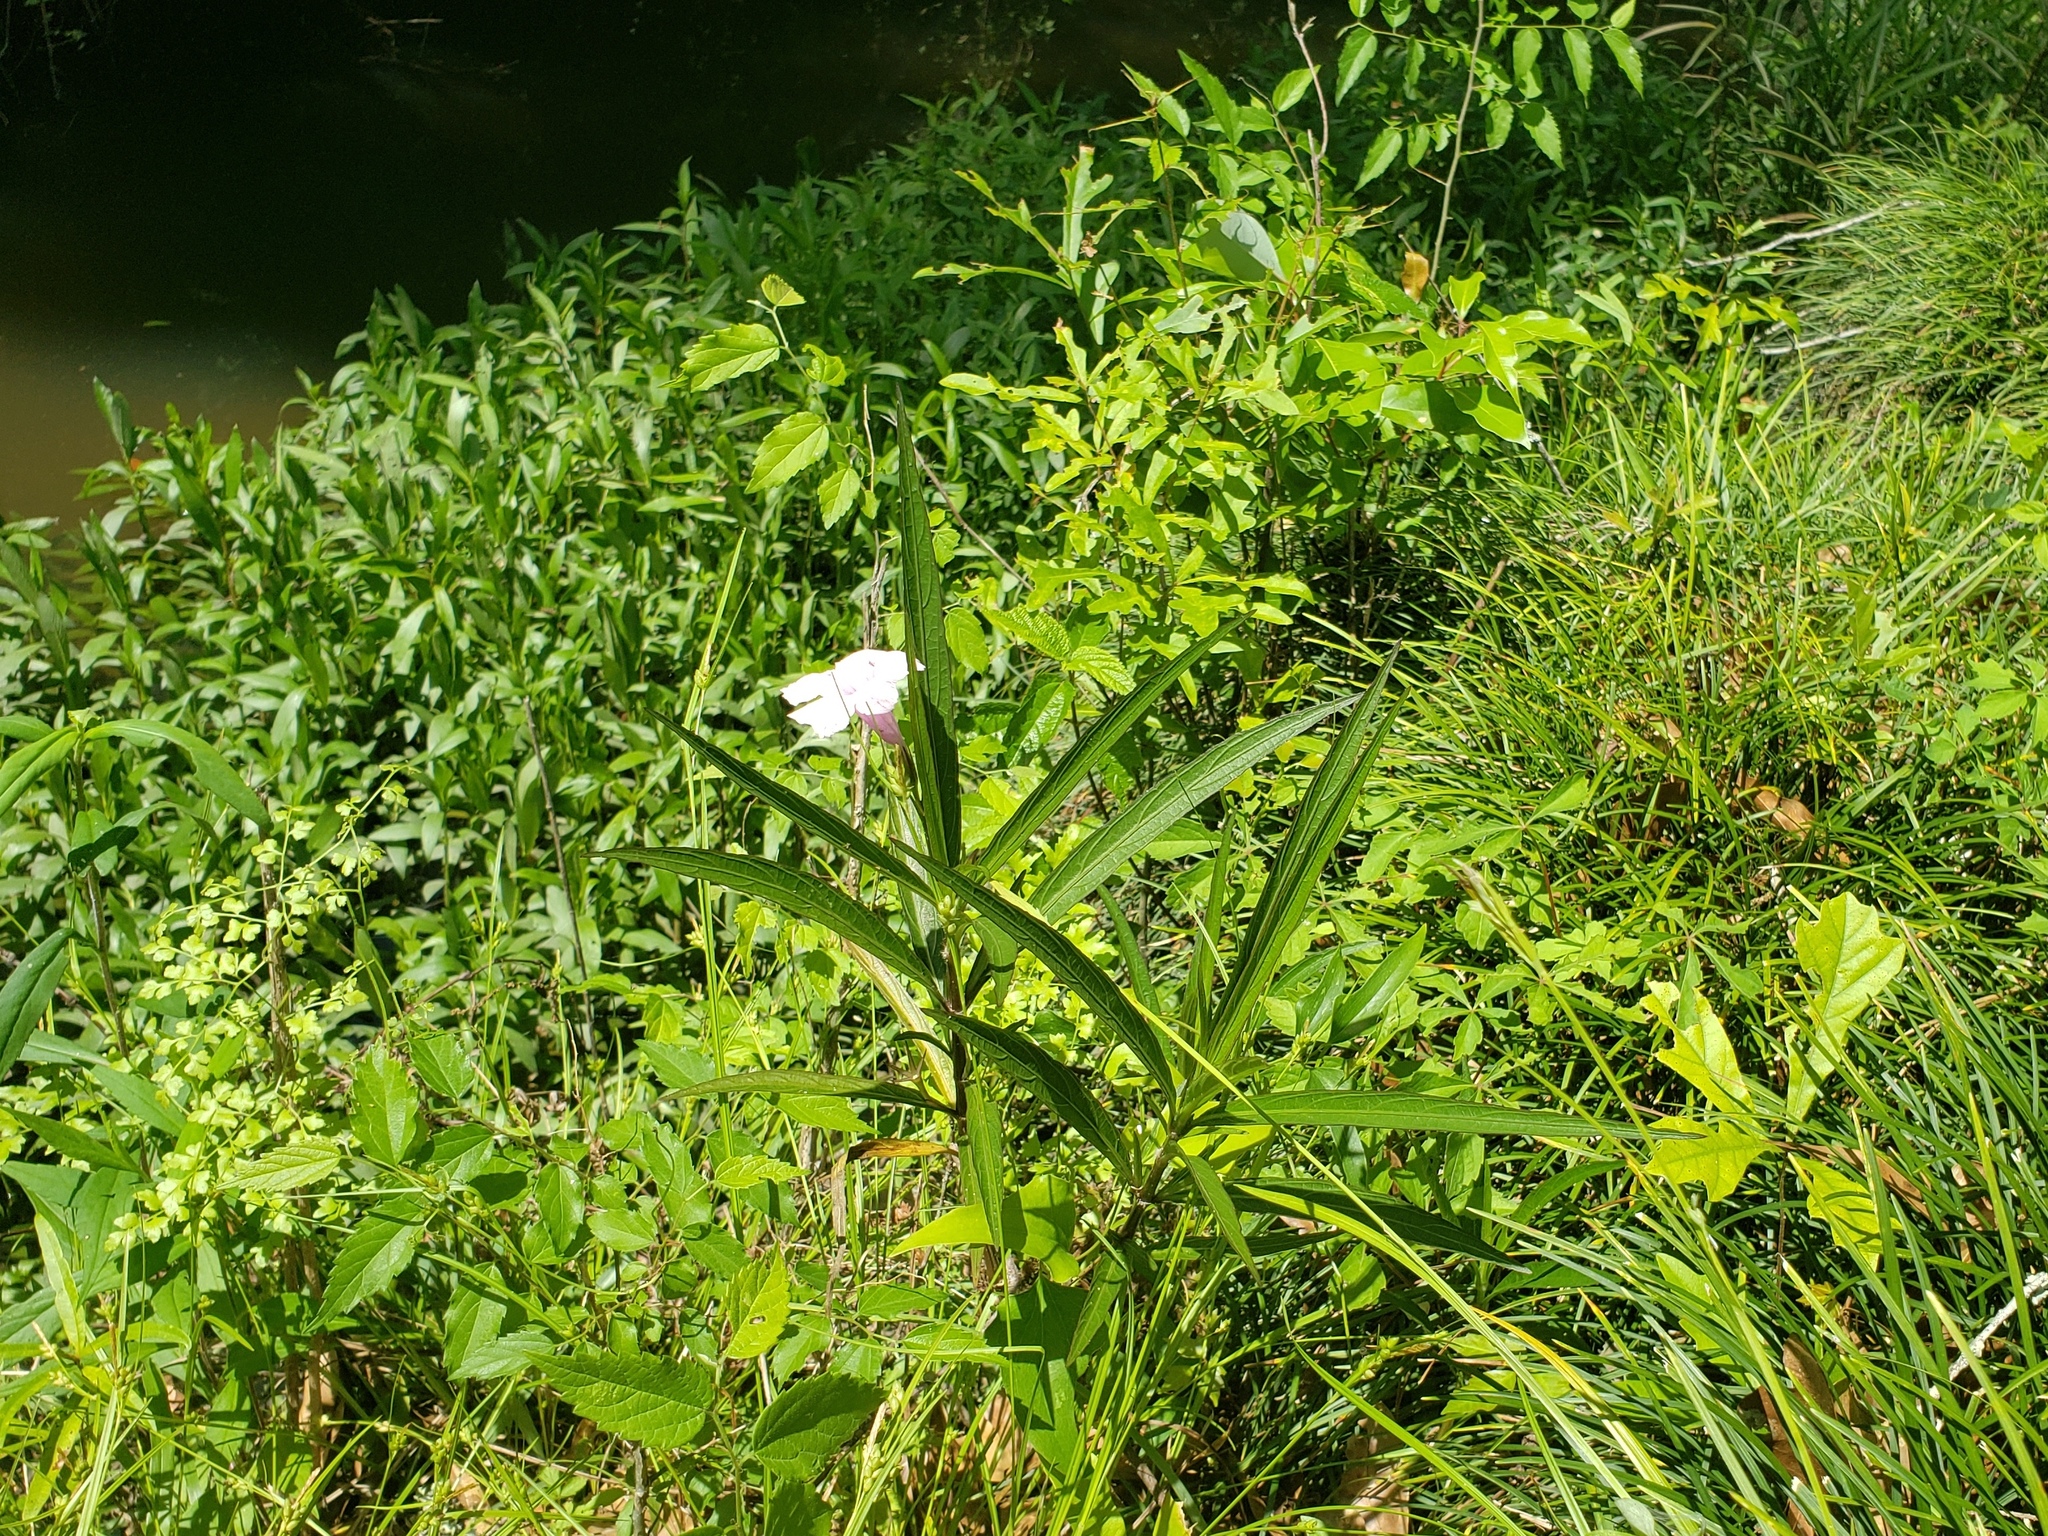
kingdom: Plantae
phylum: Tracheophyta
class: Magnoliopsida
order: Lamiales
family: Acanthaceae
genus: Ruellia
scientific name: Ruellia simplex
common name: Softseed wild petunia
